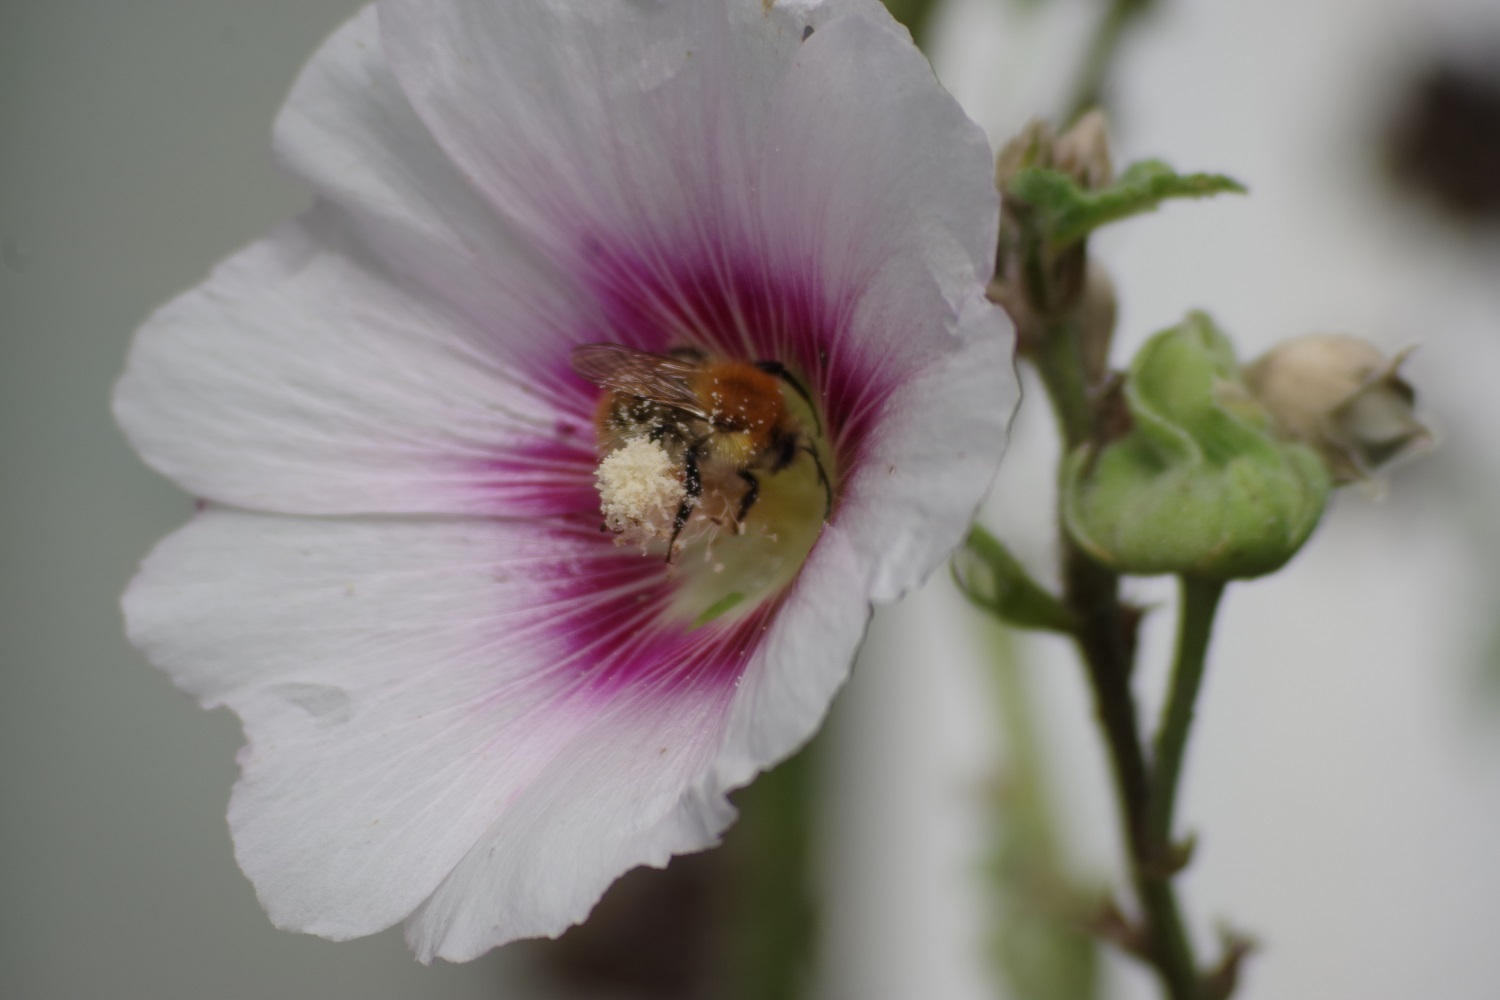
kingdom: Animalia
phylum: Arthropoda
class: Insecta
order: Hymenoptera
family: Apidae
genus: Bombus
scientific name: Bombus pascuorum
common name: Common carder bee
